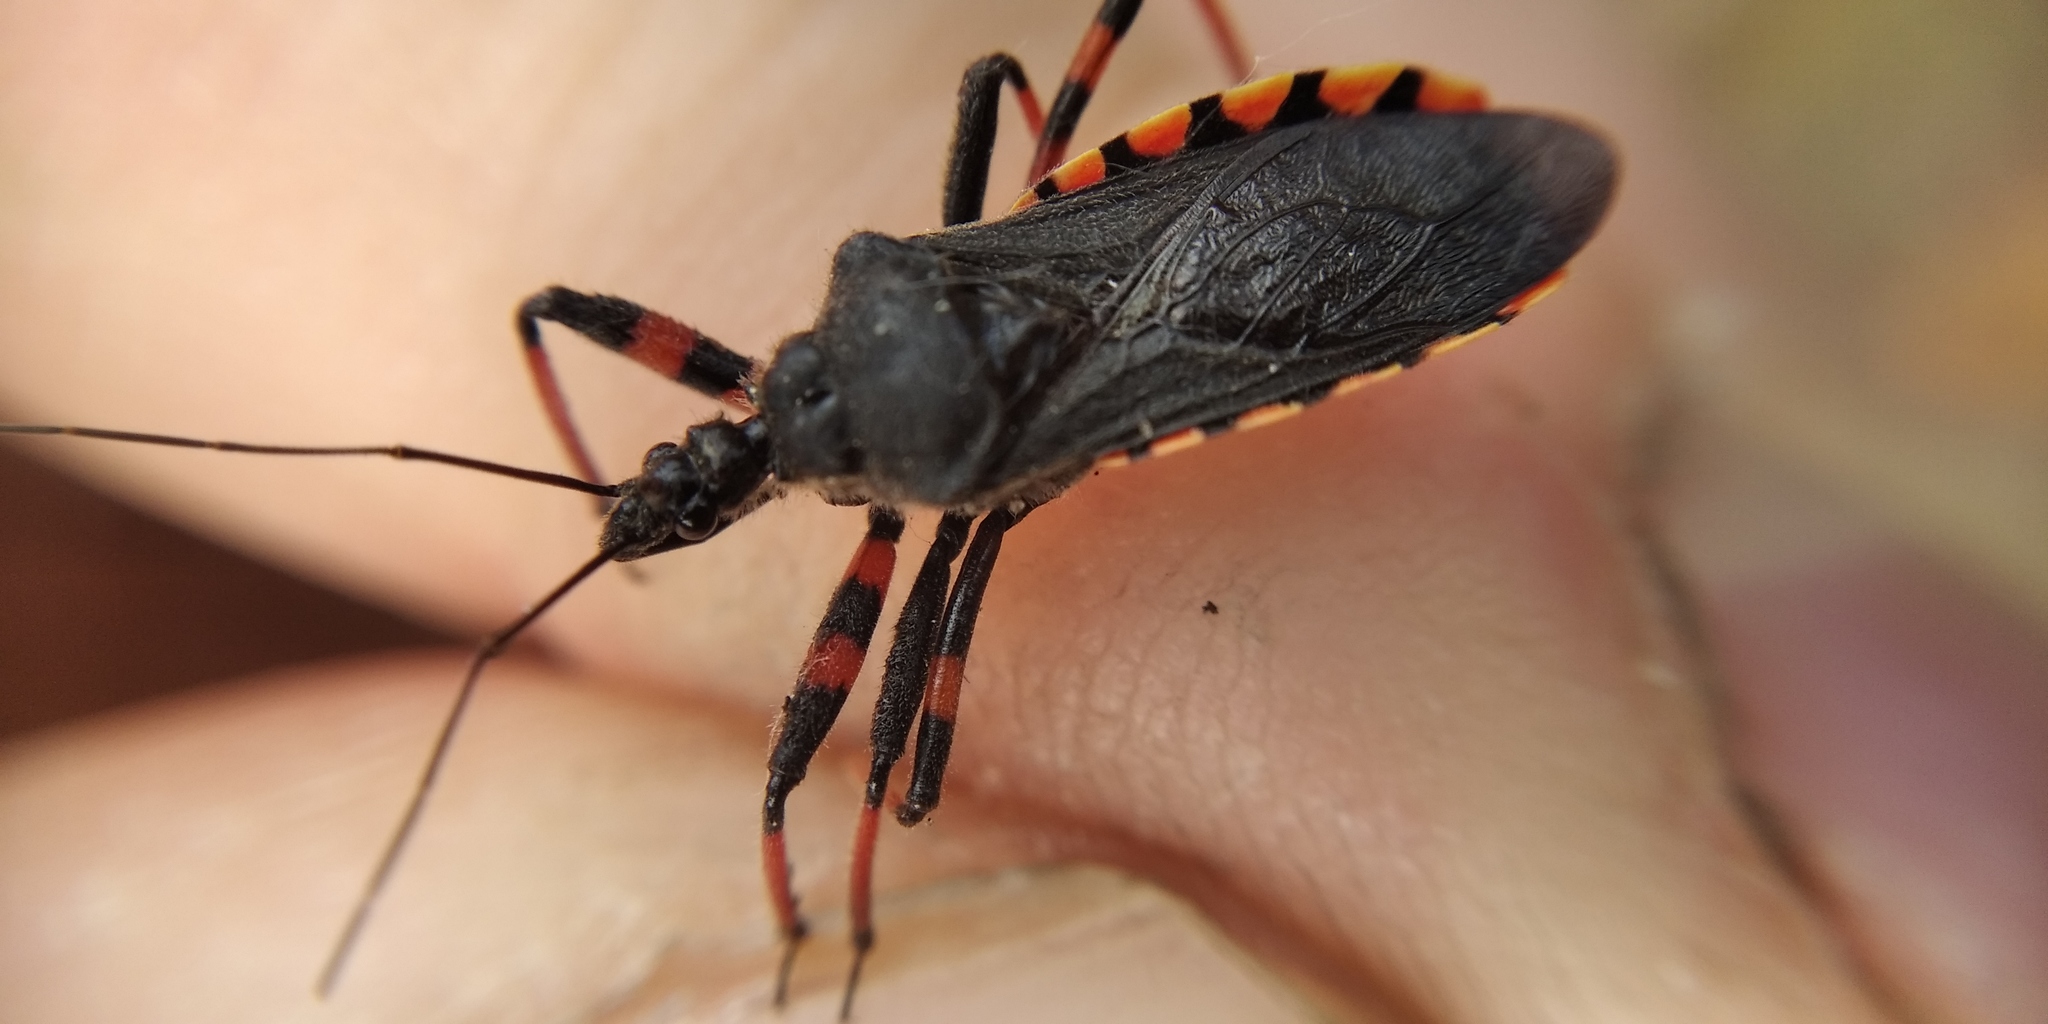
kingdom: Animalia
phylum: Arthropoda
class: Insecta
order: Hemiptera
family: Reduviidae
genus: Rhynocoris
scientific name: Rhynocoris annulatus
